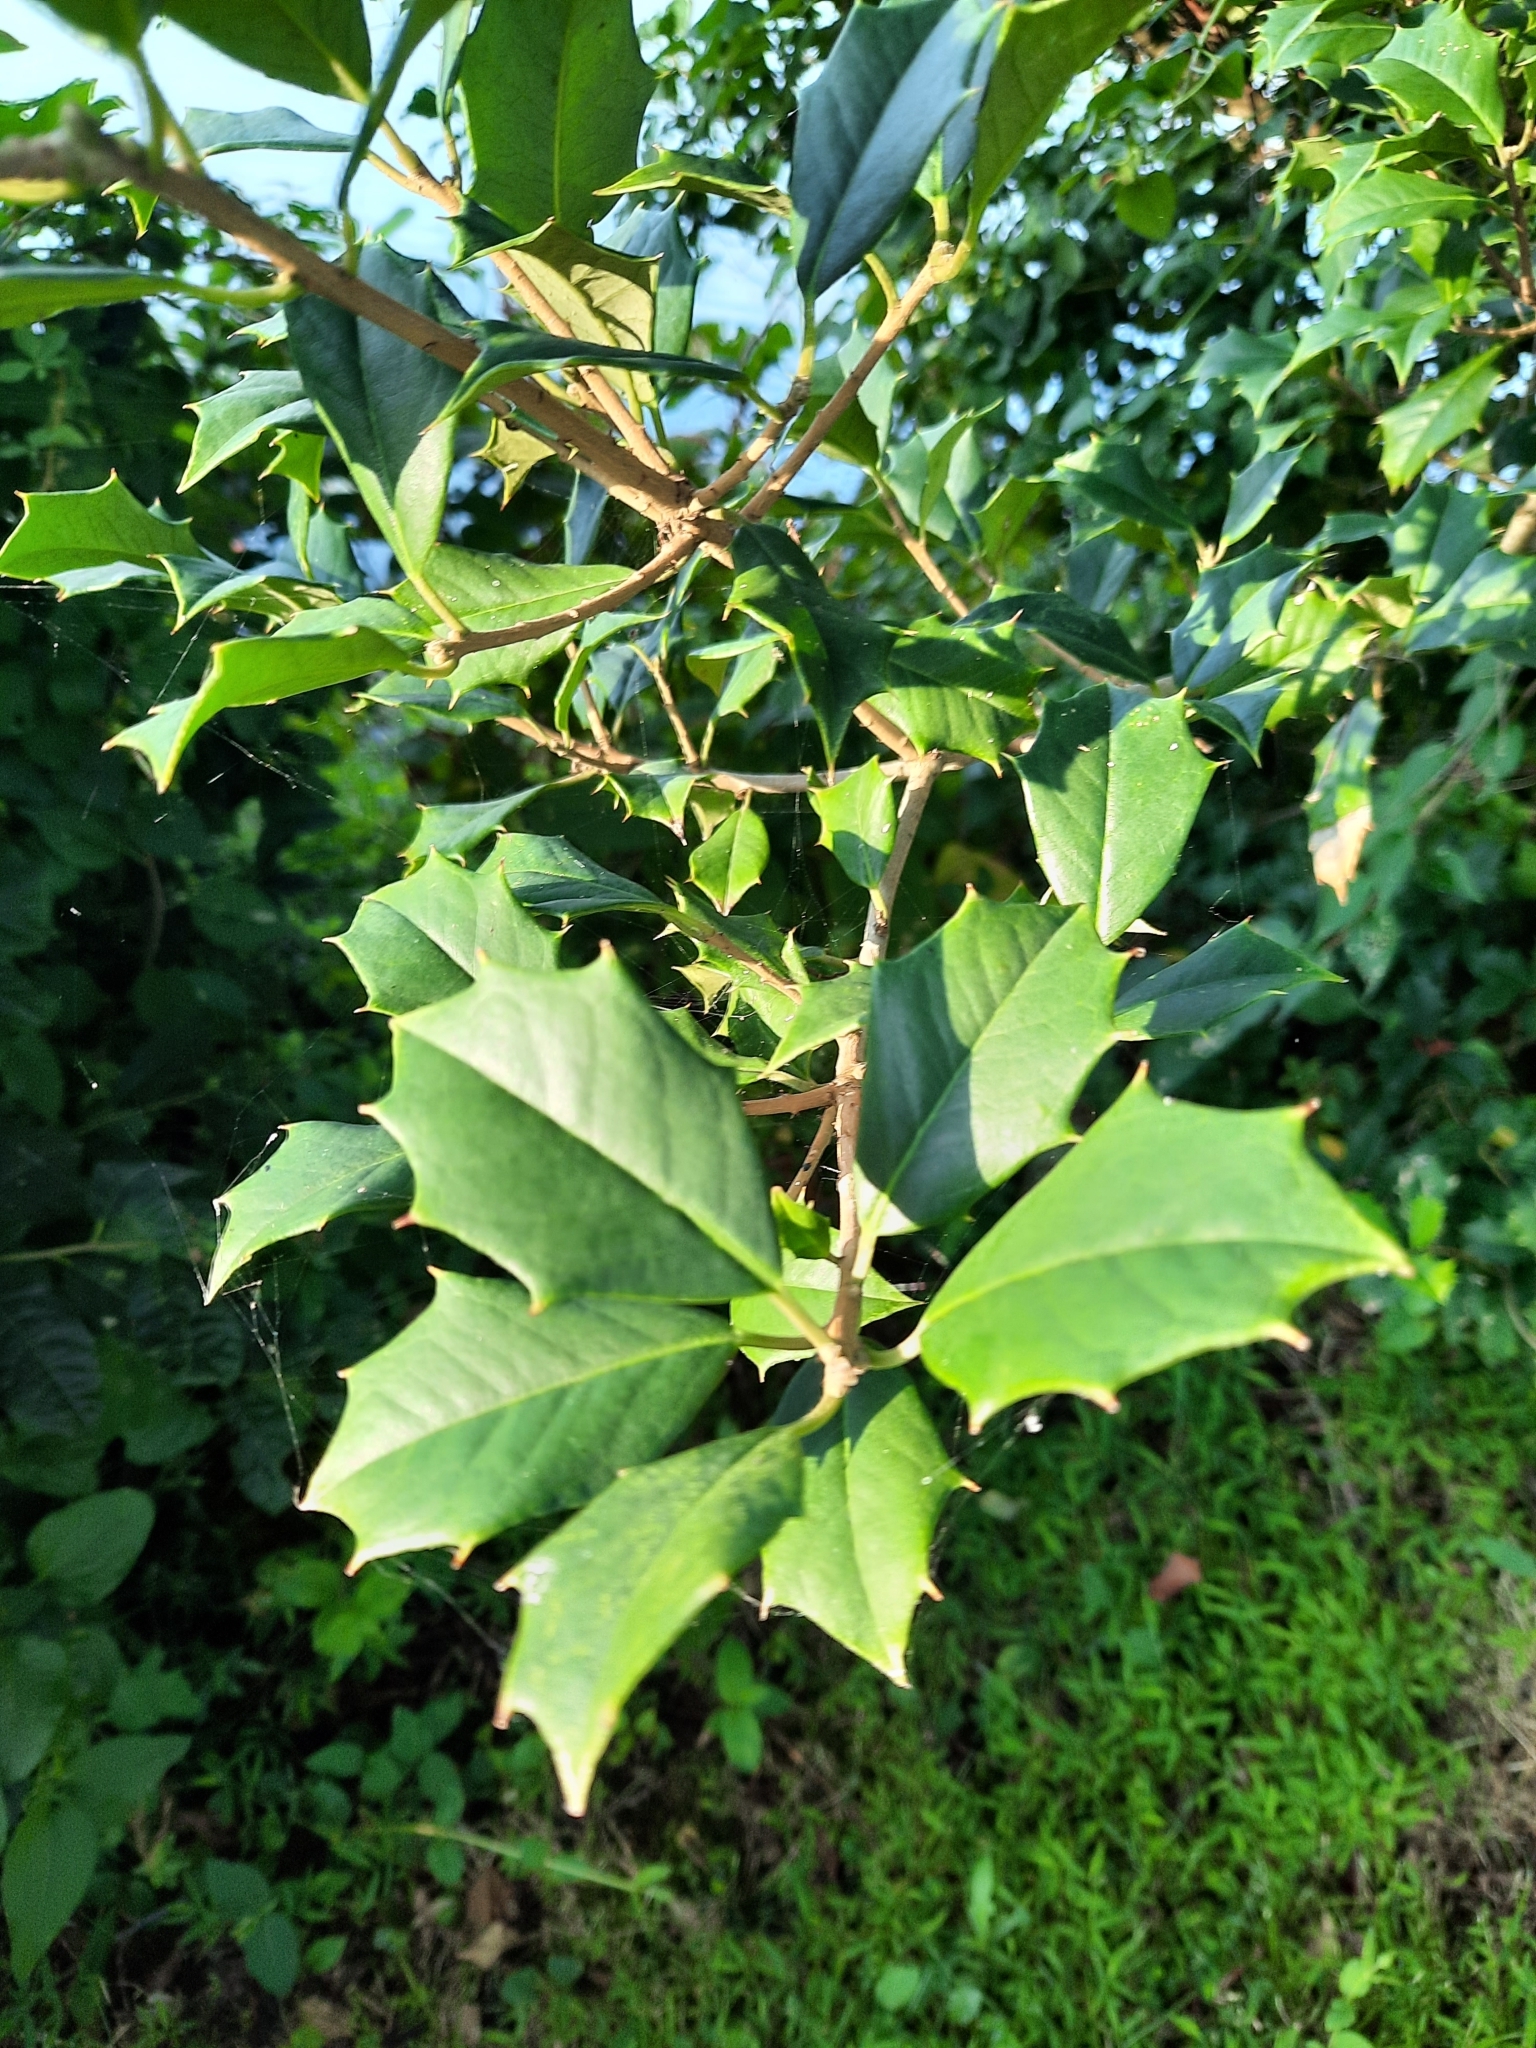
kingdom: Plantae
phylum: Tracheophyta
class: Magnoliopsida
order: Aquifoliales
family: Aquifoliaceae
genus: Ilex
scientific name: Ilex opaca
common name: American holly
